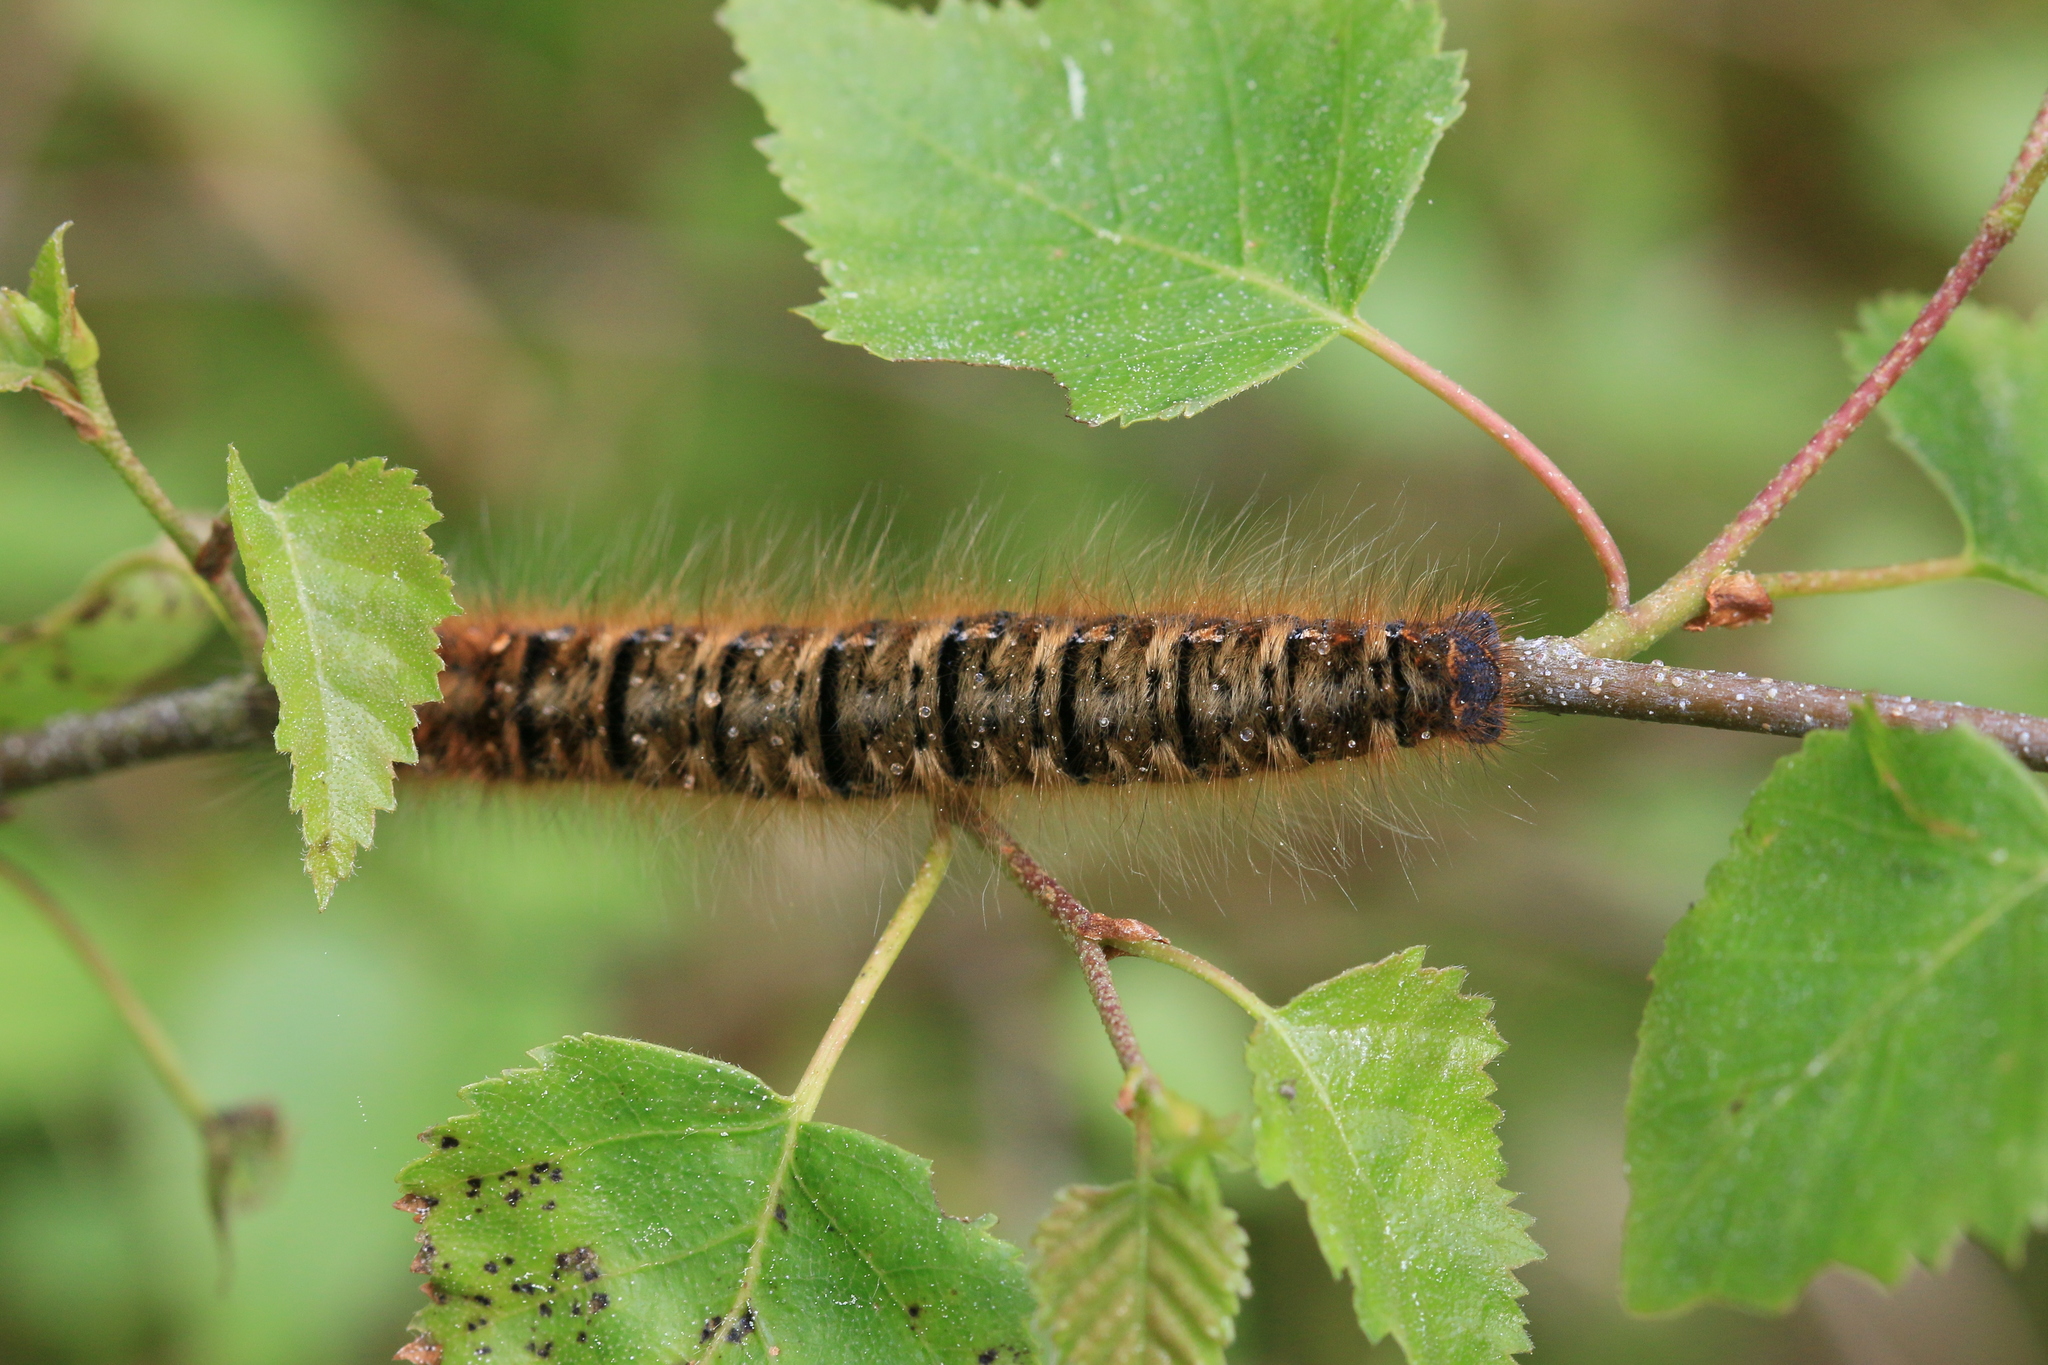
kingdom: Animalia
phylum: Arthropoda
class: Insecta
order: Lepidoptera
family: Lasiocampidae
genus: Lasiocampa
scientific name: Lasiocampa quercus
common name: Oak eggar
